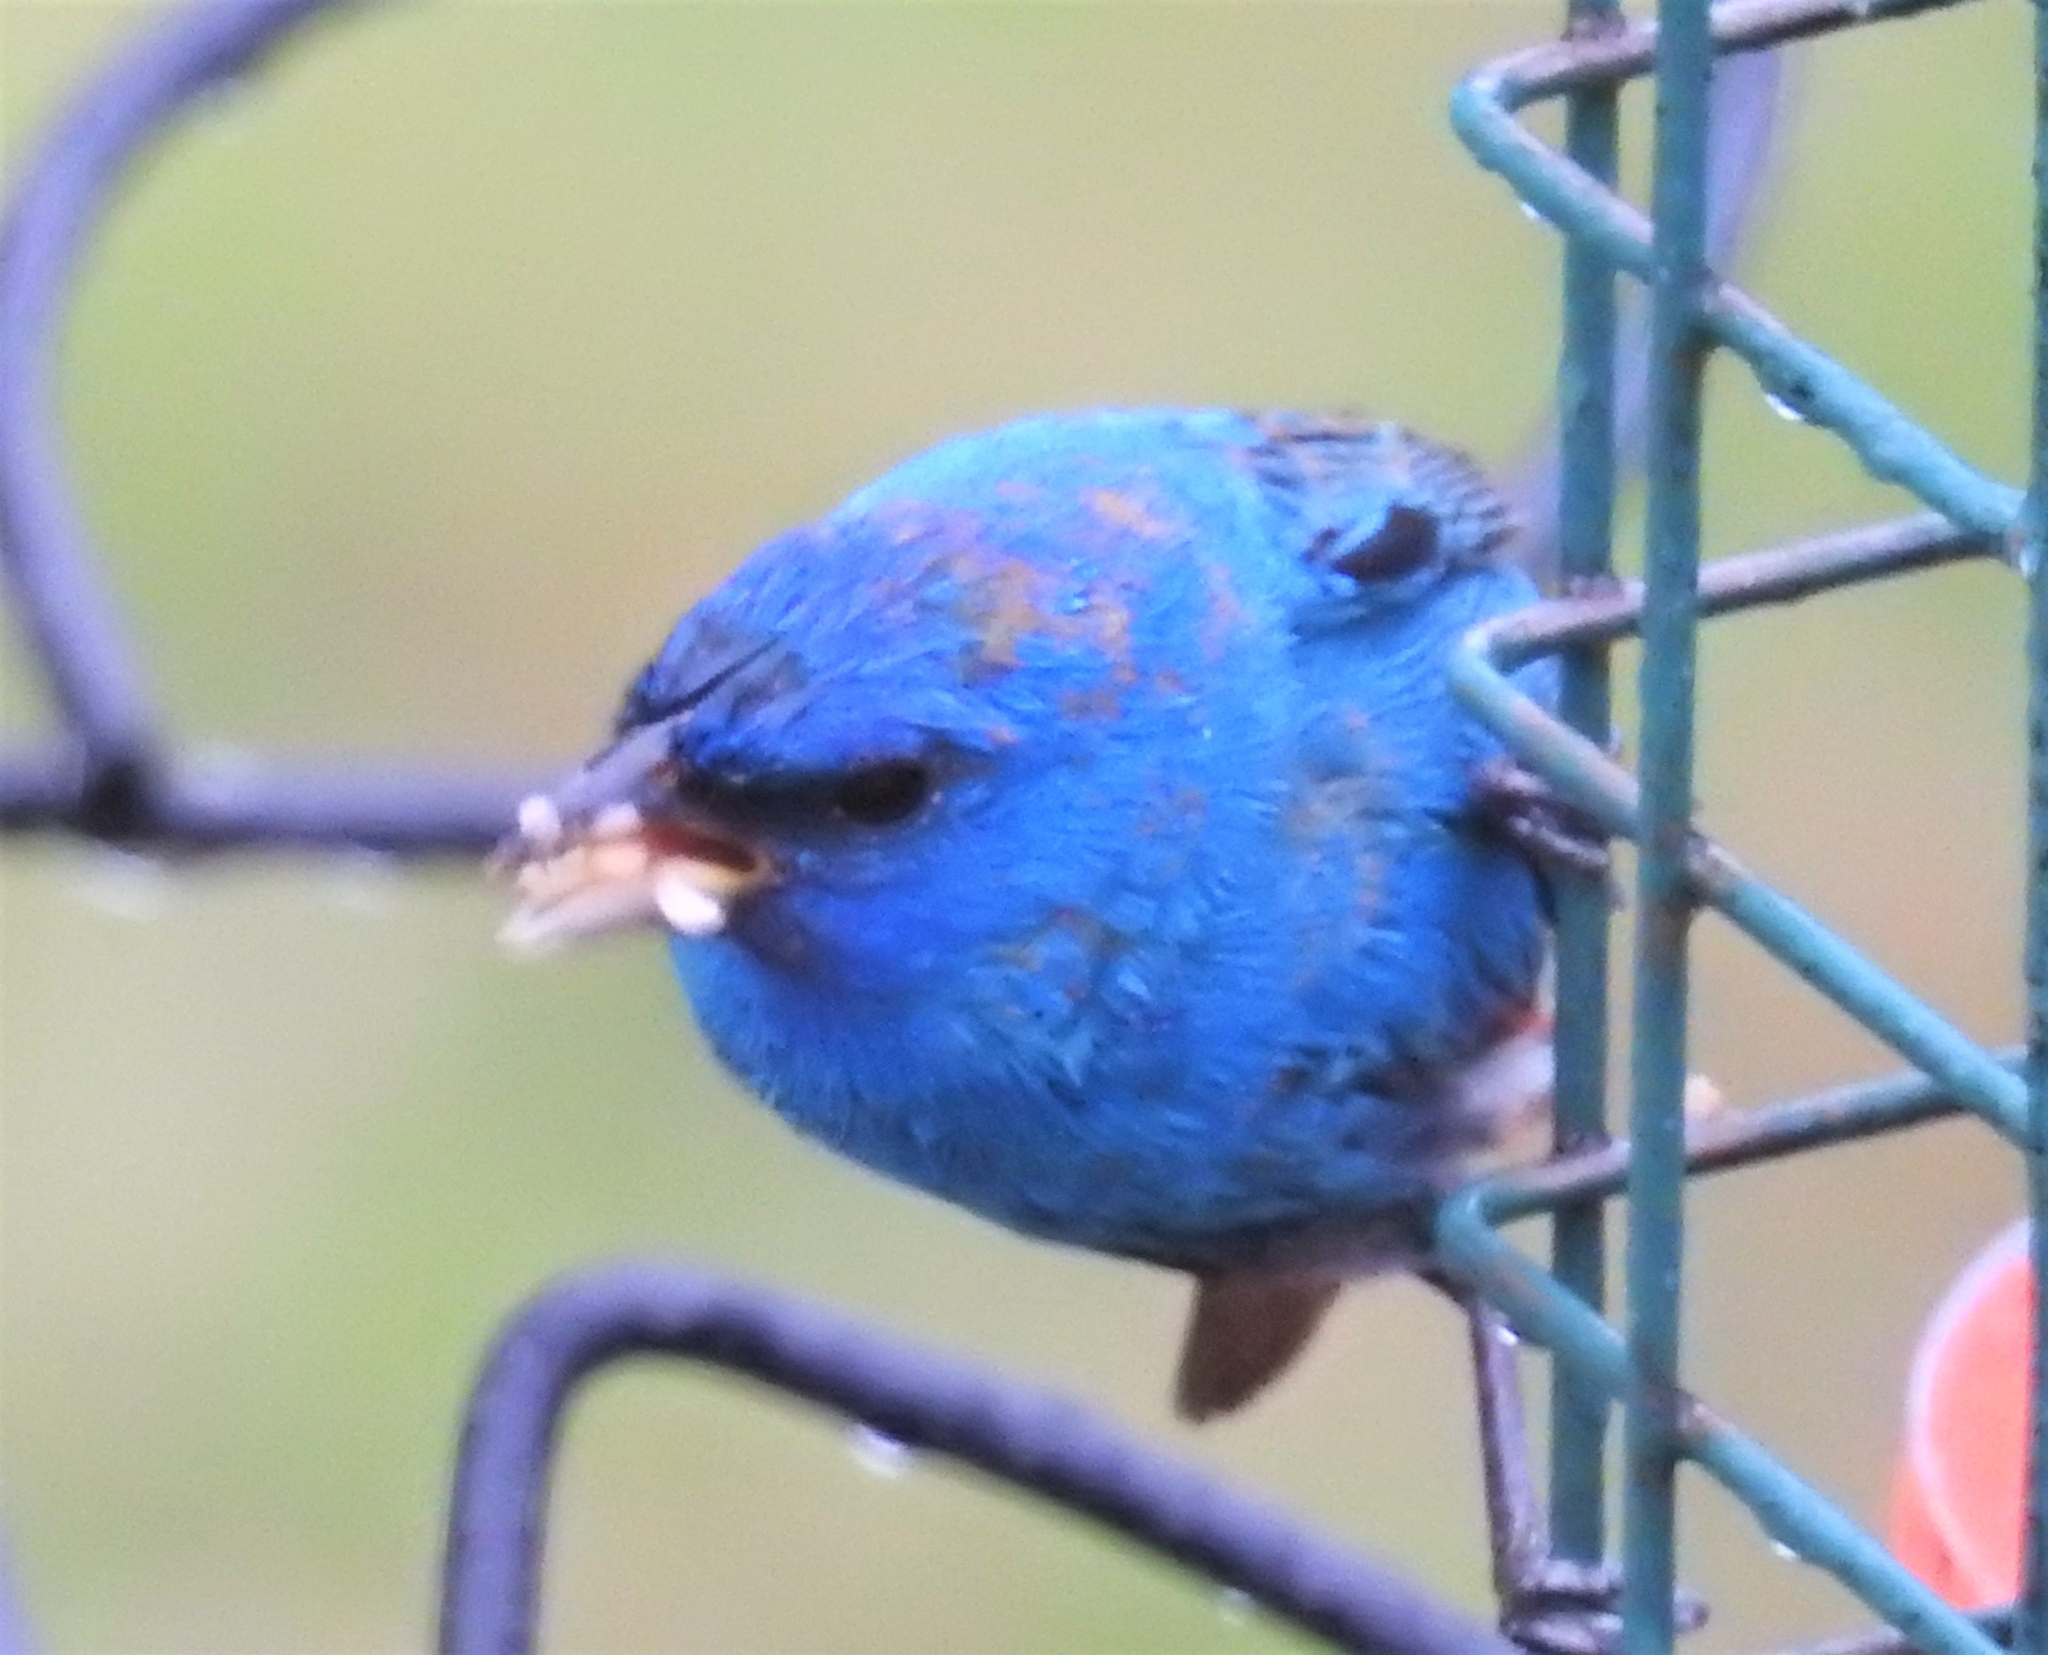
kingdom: Animalia
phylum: Chordata
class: Aves
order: Passeriformes
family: Cardinalidae
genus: Passerina
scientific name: Passerina cyanea
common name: Indigo bunting
